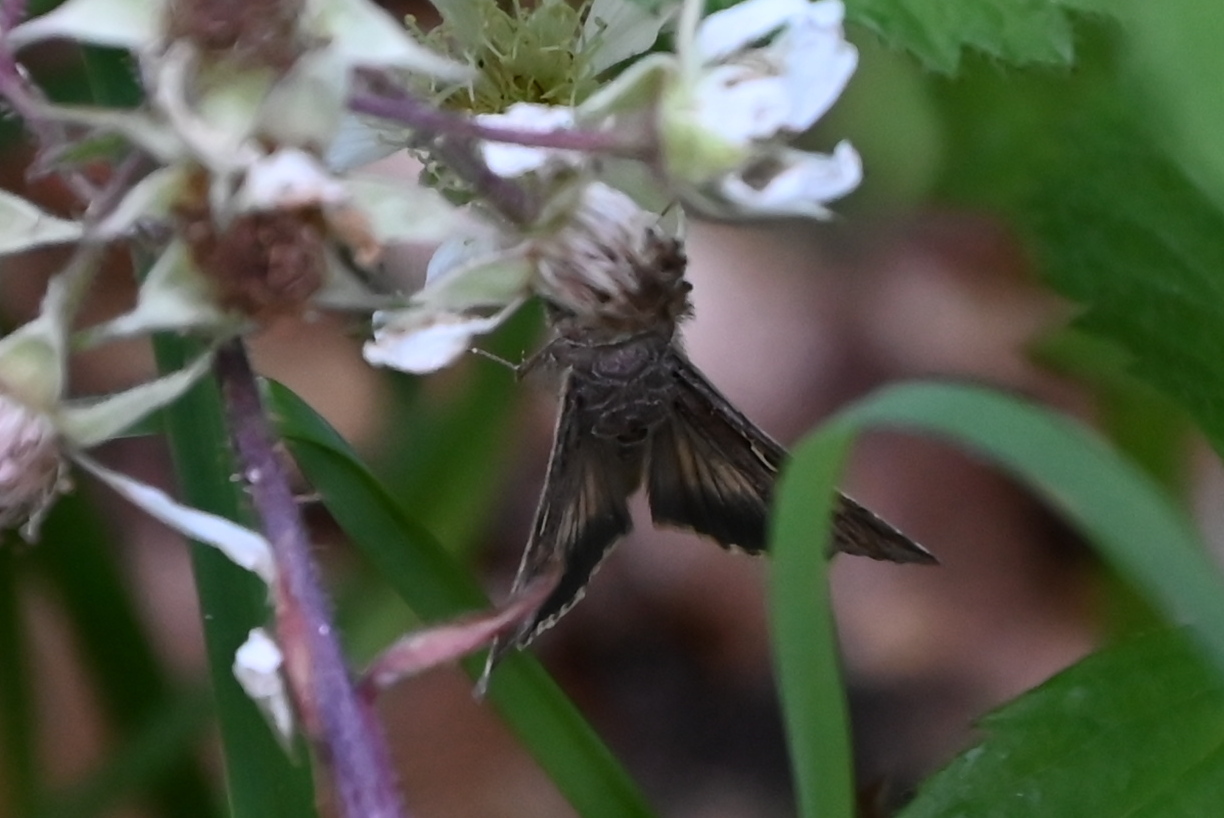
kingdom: Animalia
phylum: Arthropoda
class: Insecta
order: Lepidoptera
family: Noctuidae
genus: Autographa
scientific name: Autographa gamma
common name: Silver y
